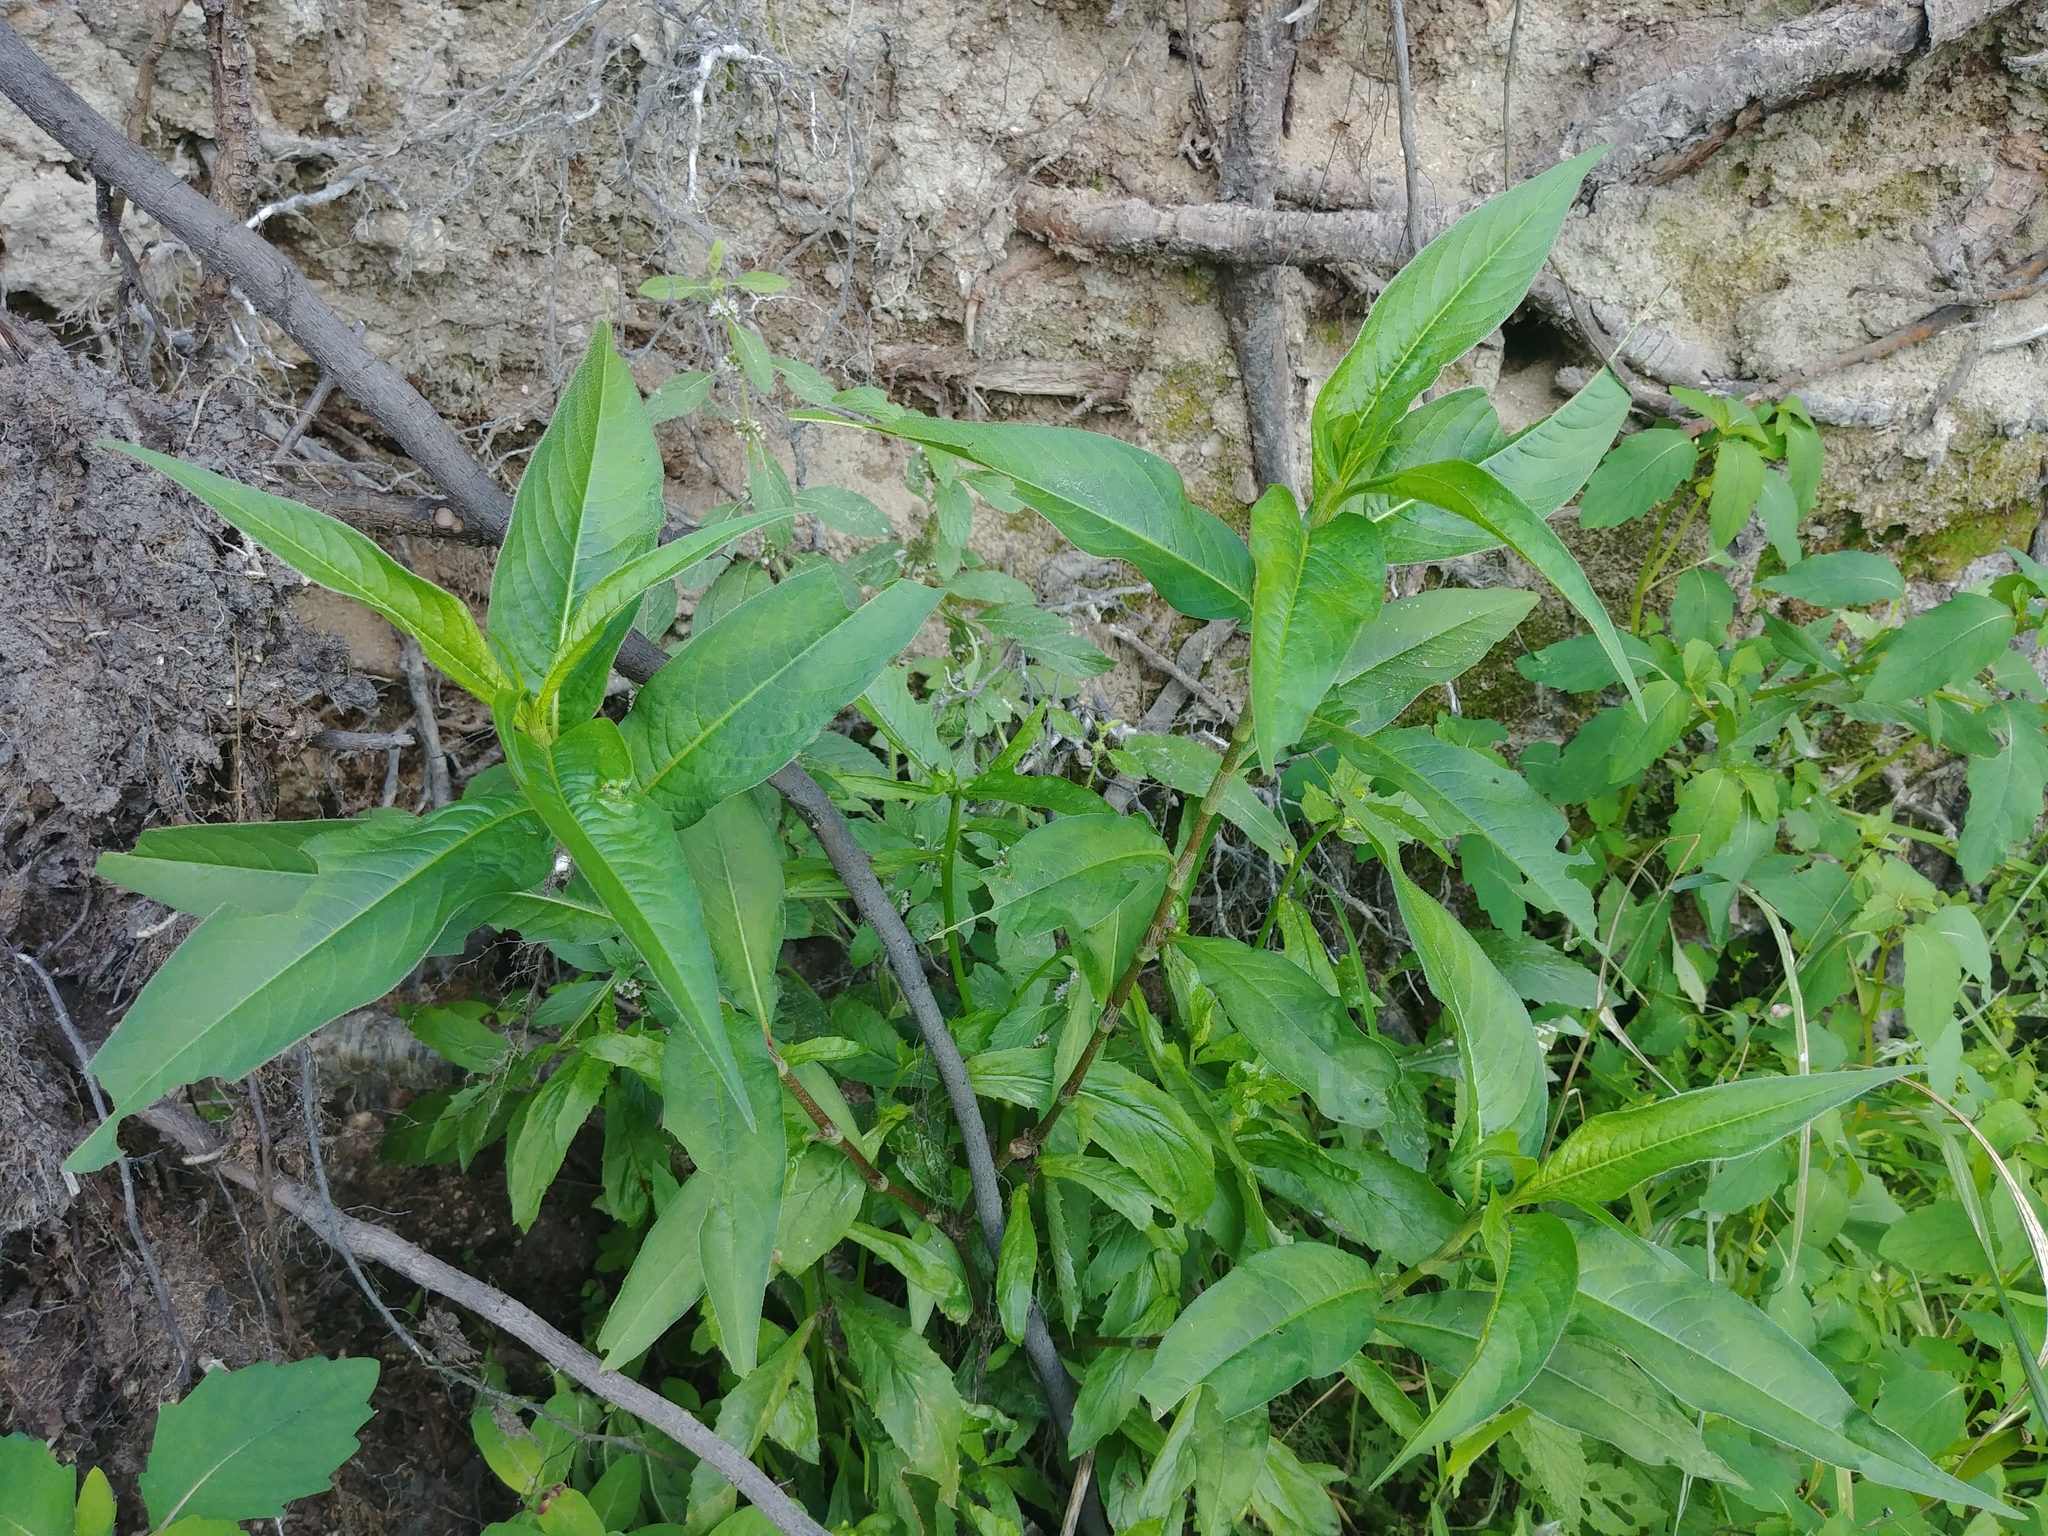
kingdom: Plantae
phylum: Tracheophyta
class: Magnoliopsida
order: Caryophyllales
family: Polygonaceae
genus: Persicaria
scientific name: Persicaria extremiorientalis
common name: Far-eastern smartweed
